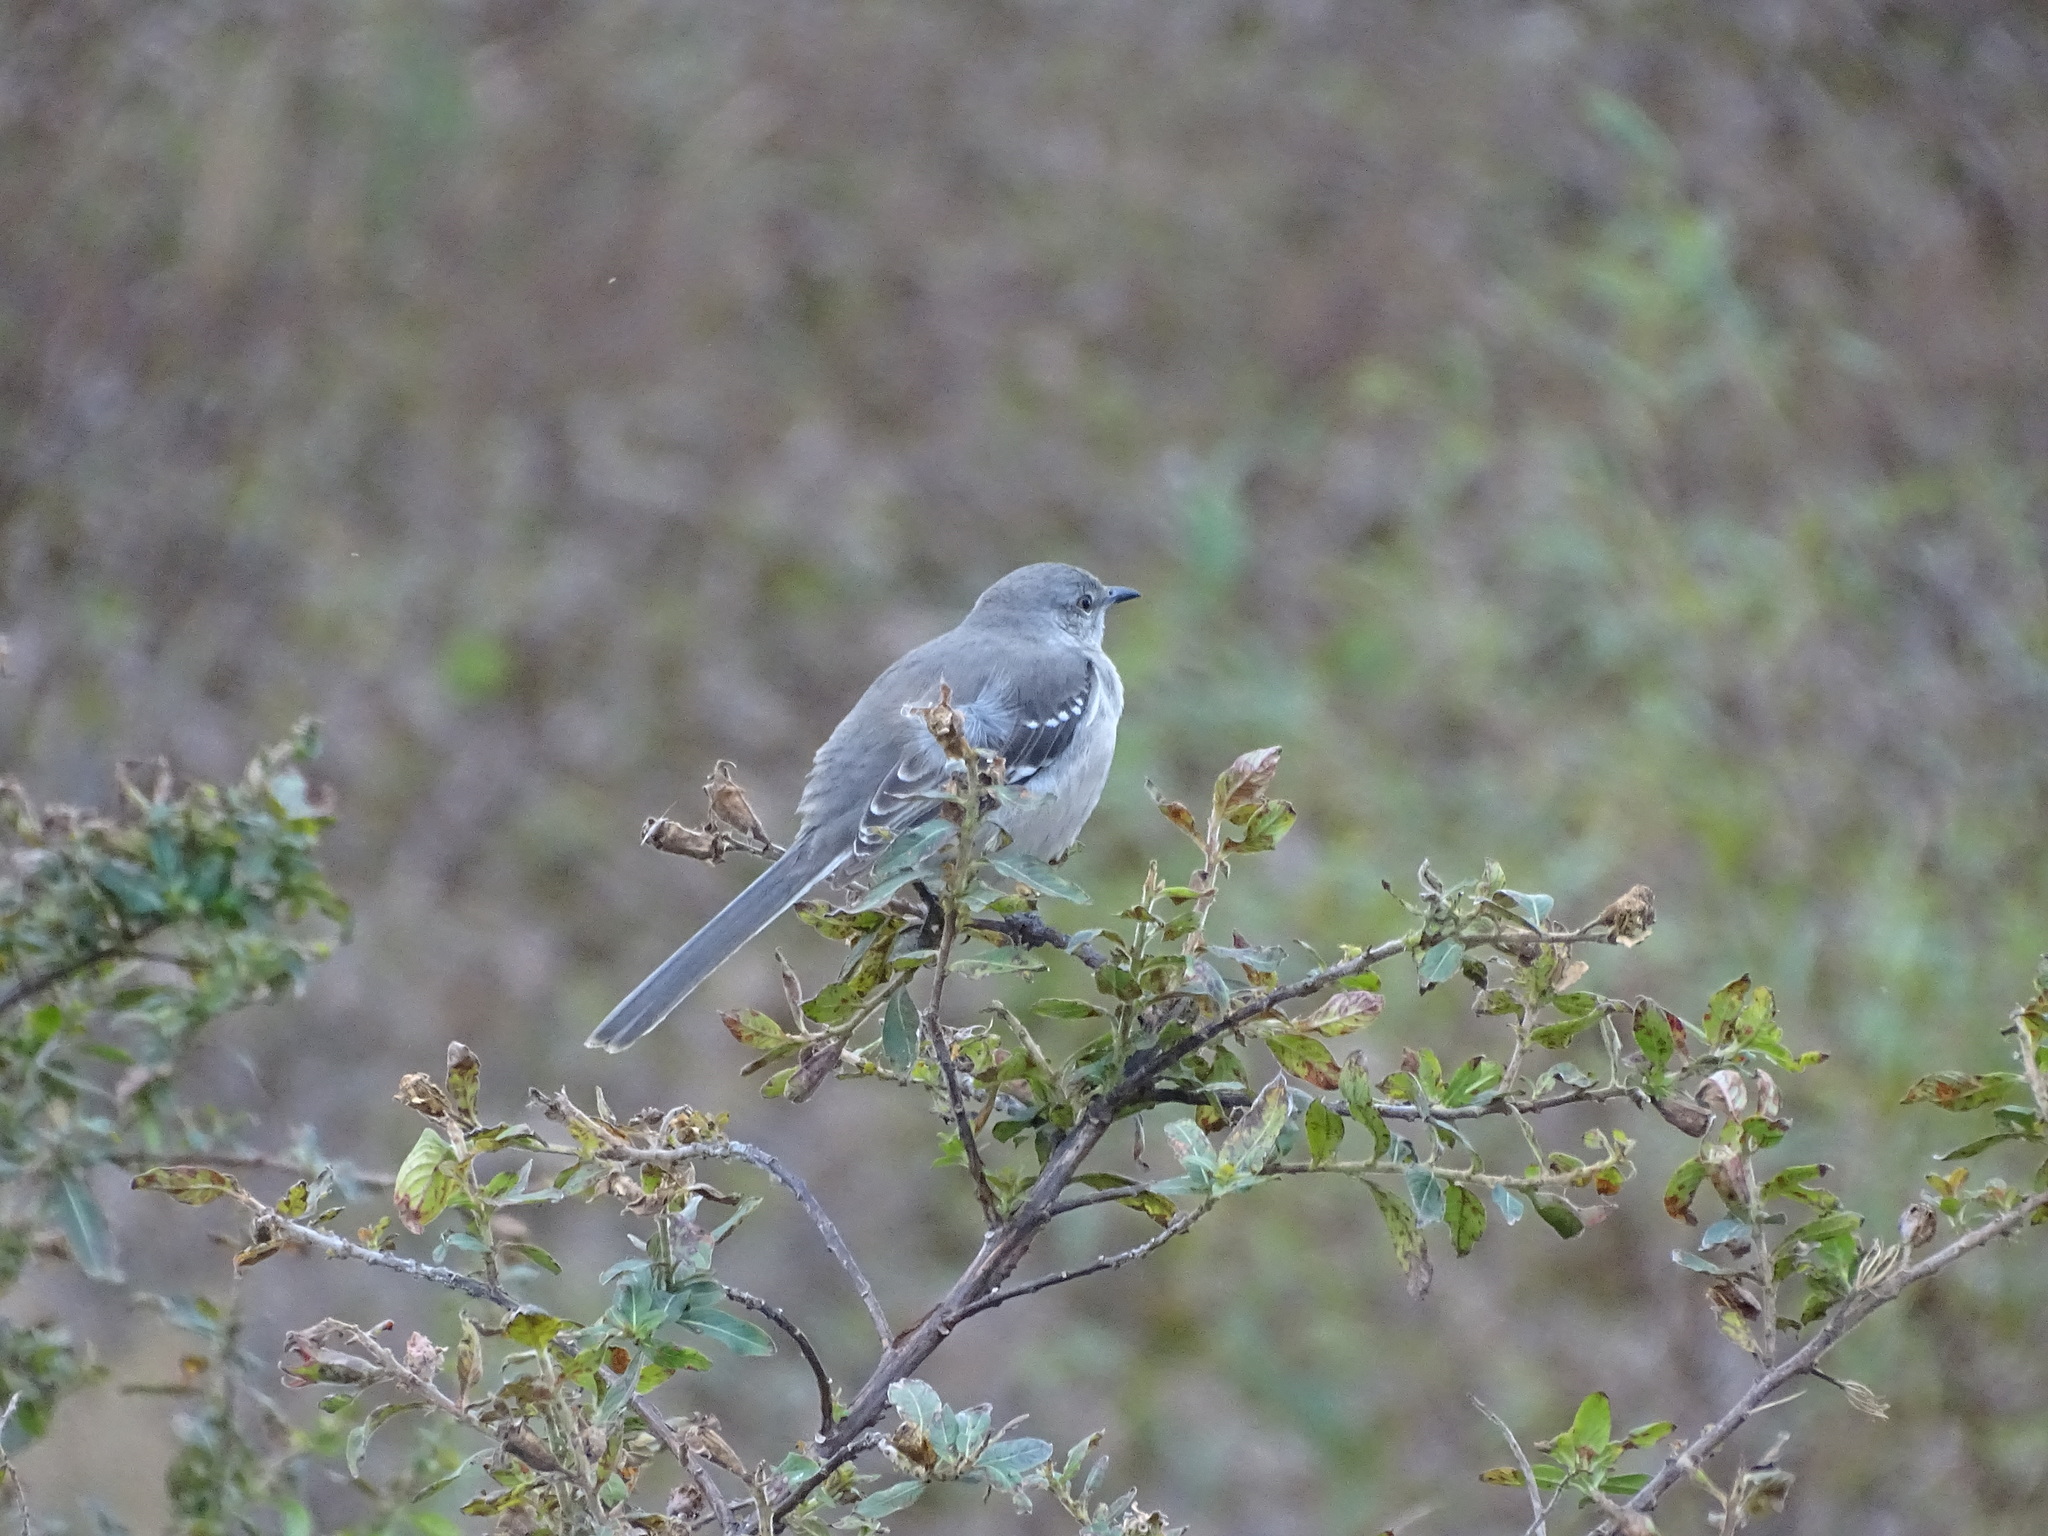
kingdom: Animalia
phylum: Chordata
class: Aves
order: Passeriformes
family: Mimidae
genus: Mimus
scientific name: Mimus polyglottos
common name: Northern mockingbird
